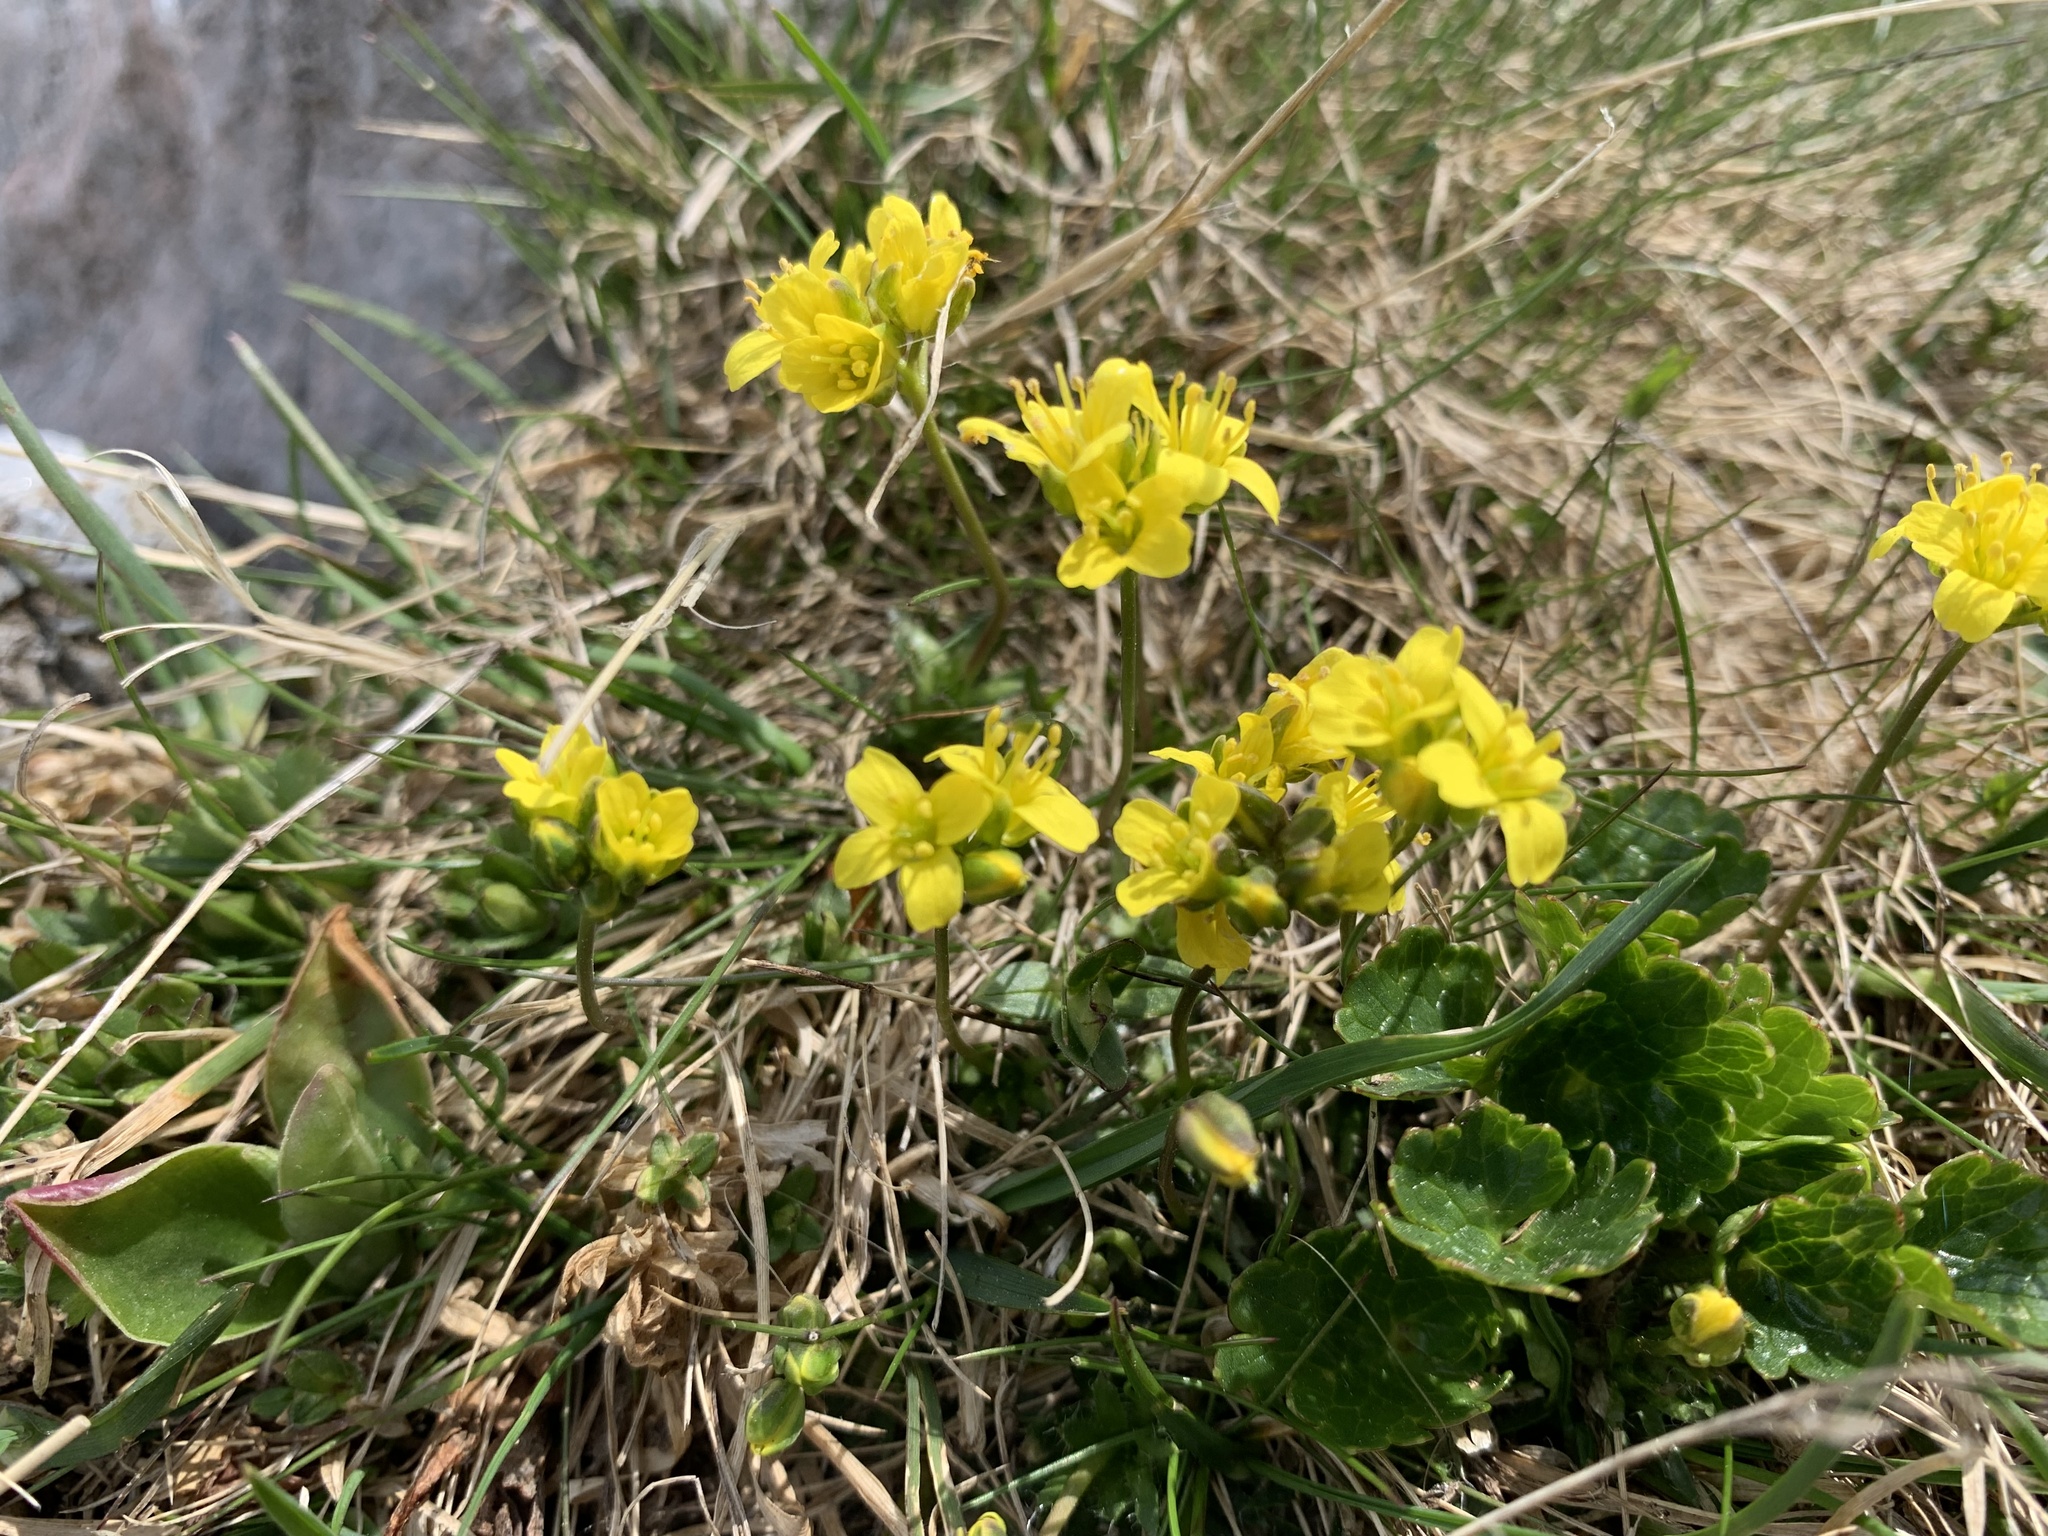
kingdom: Plantae
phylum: Tracheophyta
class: Magnoliopsida
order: Brassicales
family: Brassicaceae
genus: Draba
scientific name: Draba aizoides
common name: Yellow whitlowgrass
